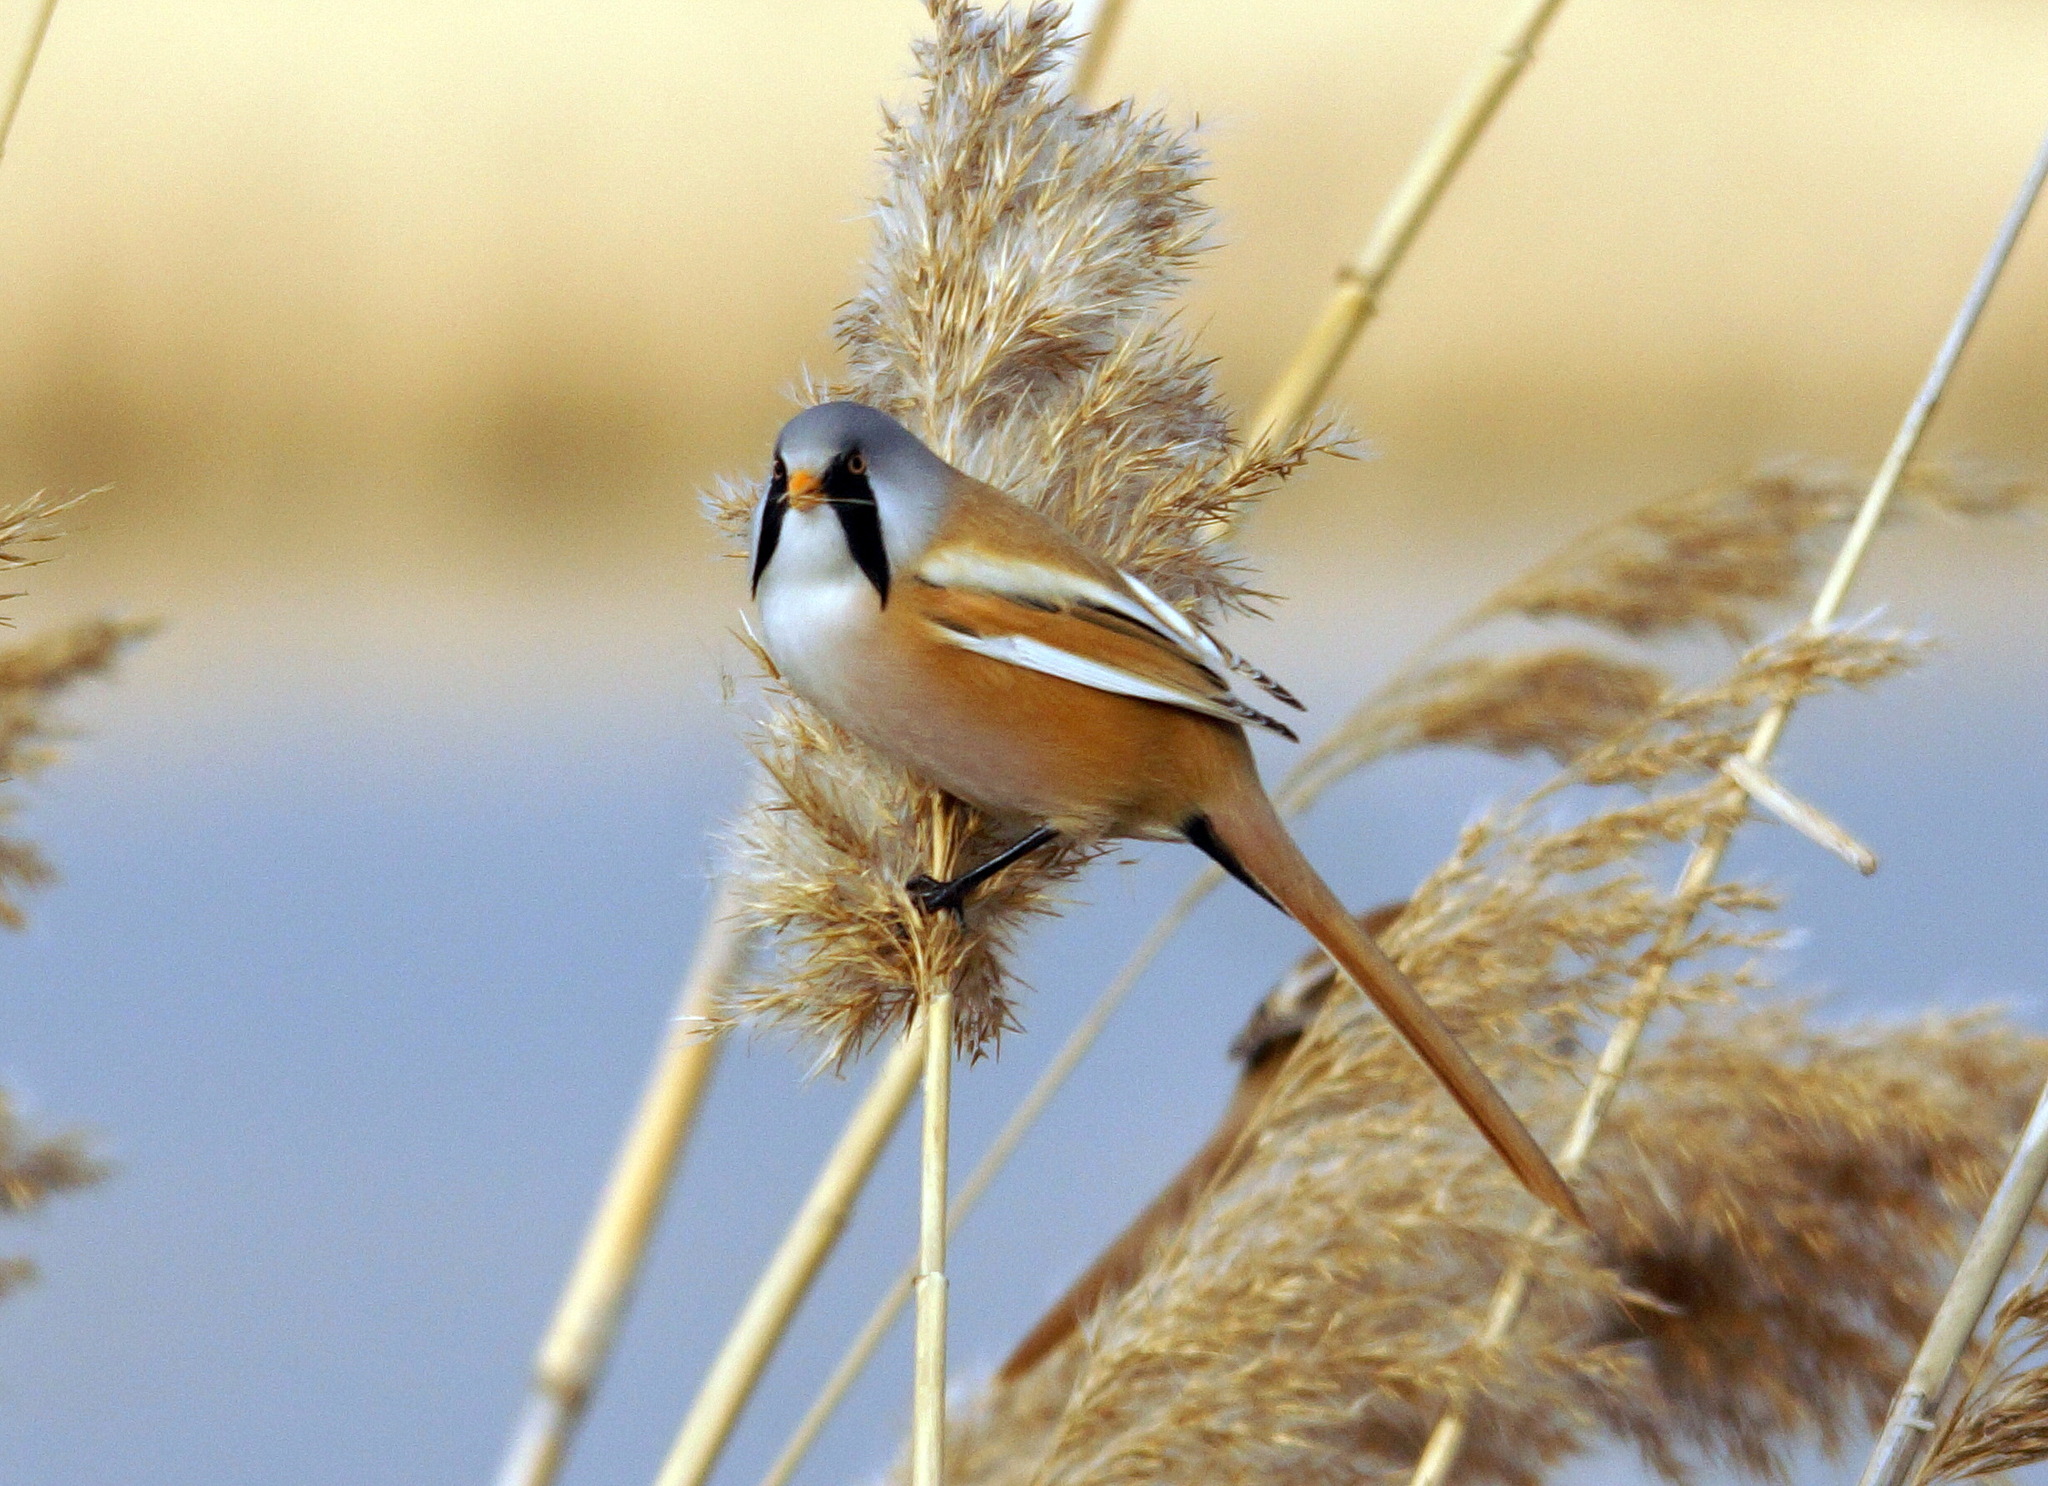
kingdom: Animalia
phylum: Chordata
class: Aves
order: Passeriformes
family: Panuridae
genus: Panurus
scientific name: Panurus biarmicus
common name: Bearded reedling
